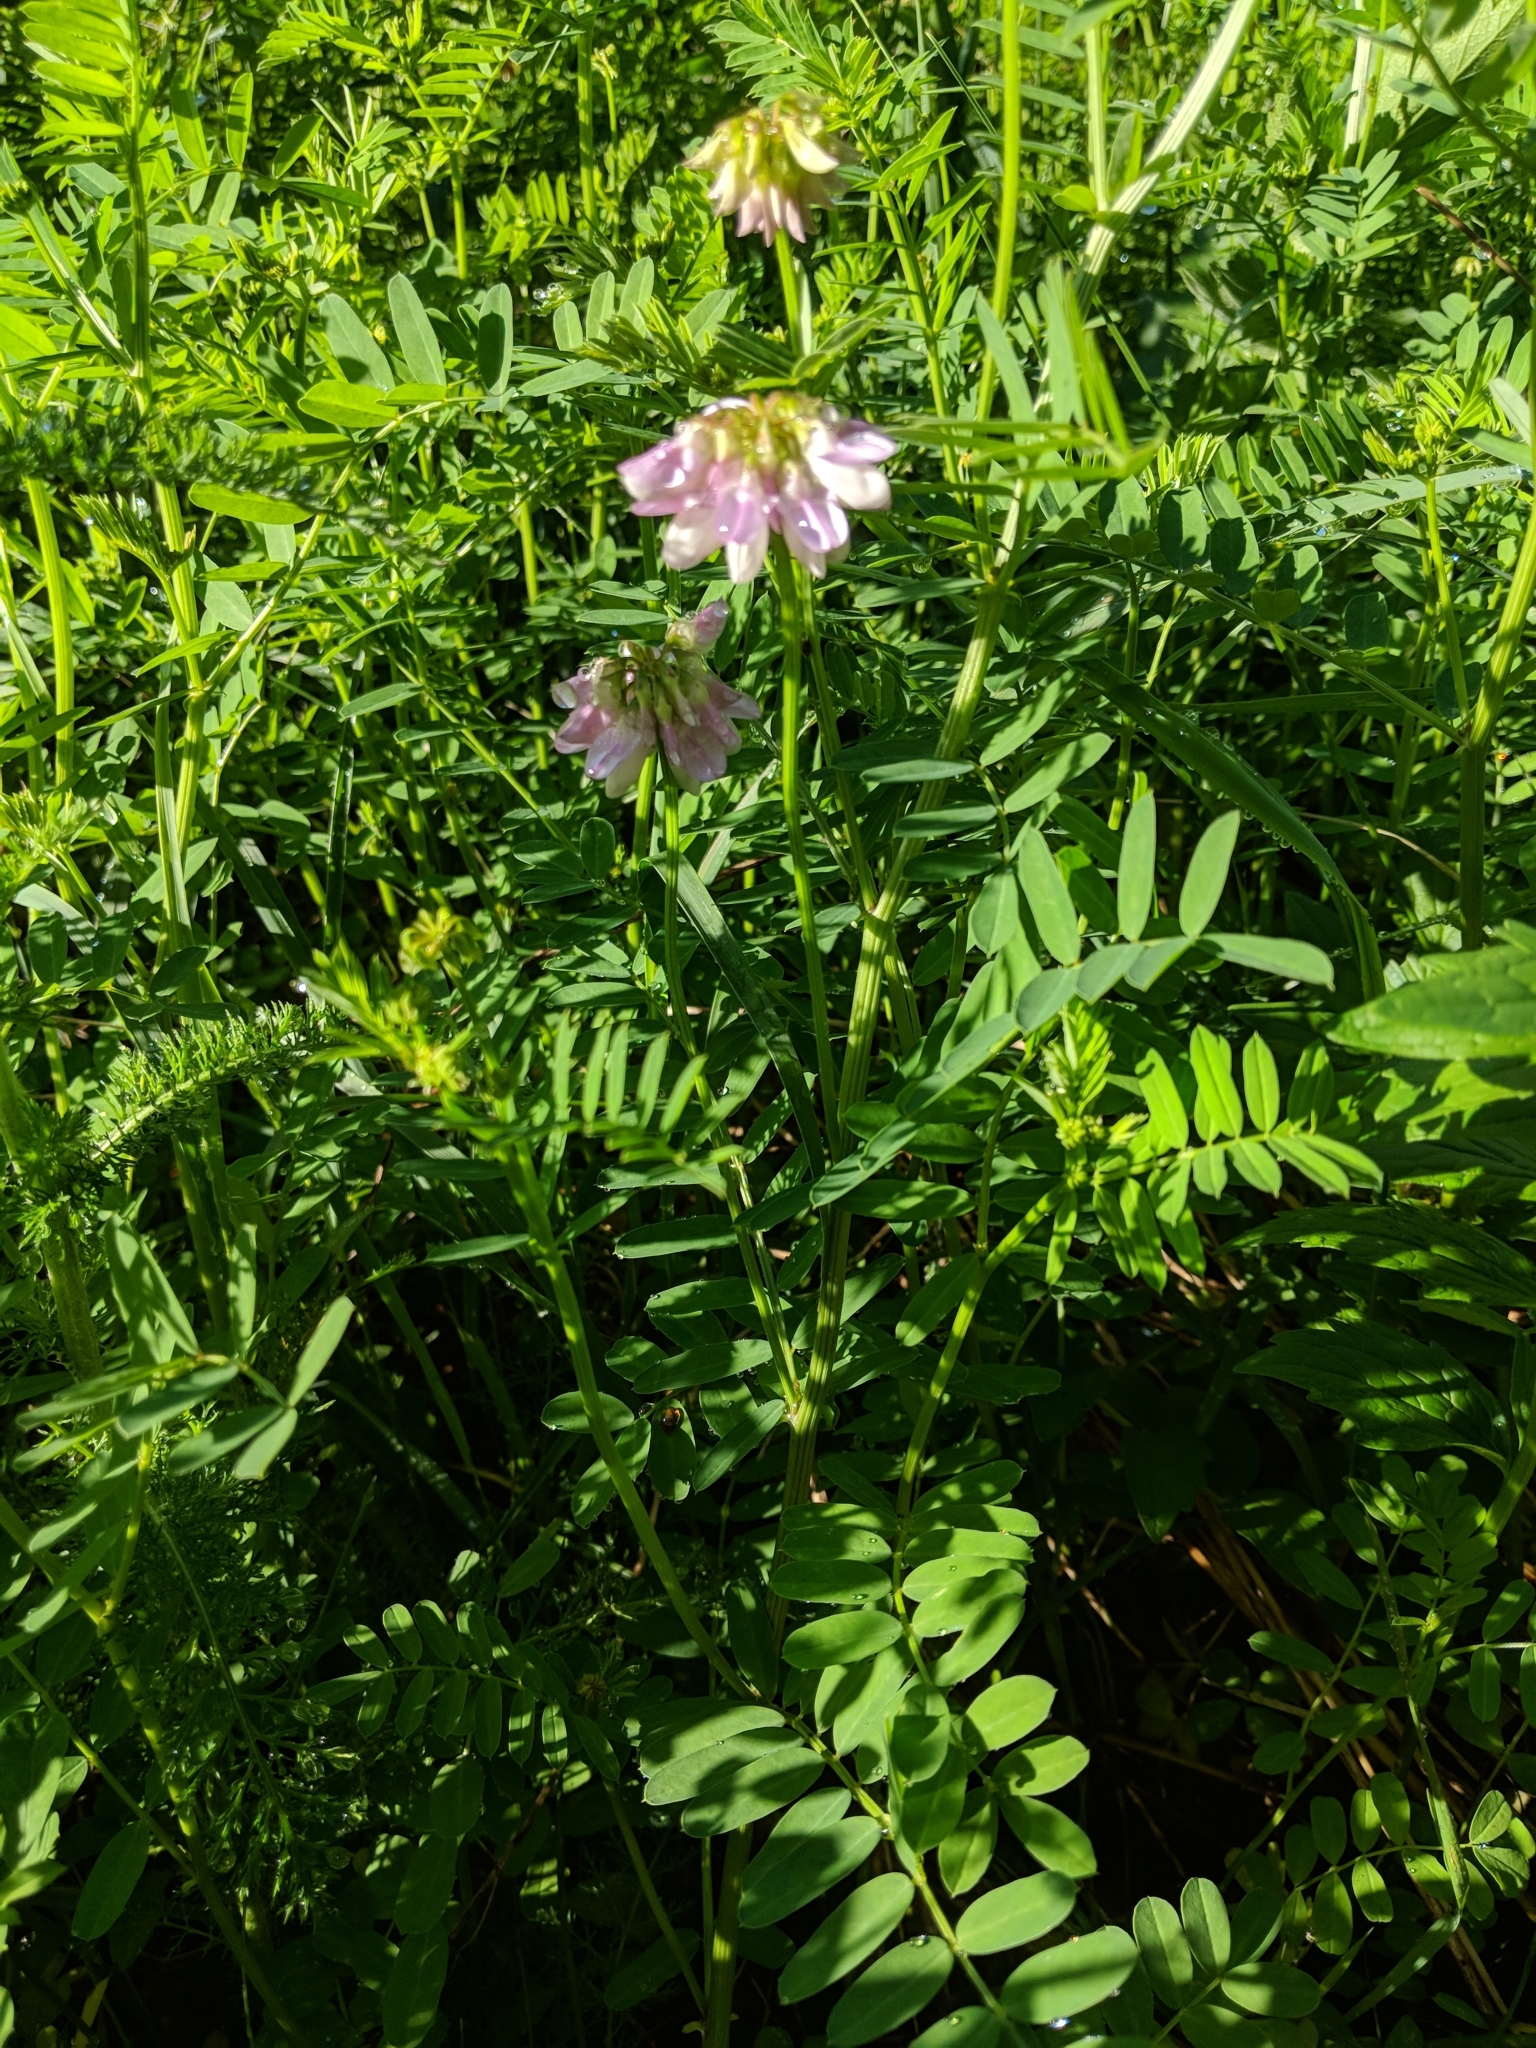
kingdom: Plantae
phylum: Tracheophyta
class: Magnoliopsida
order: Fabales
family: Fabaceae
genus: Coronilla
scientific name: Coronilla varia
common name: Crownvetch
